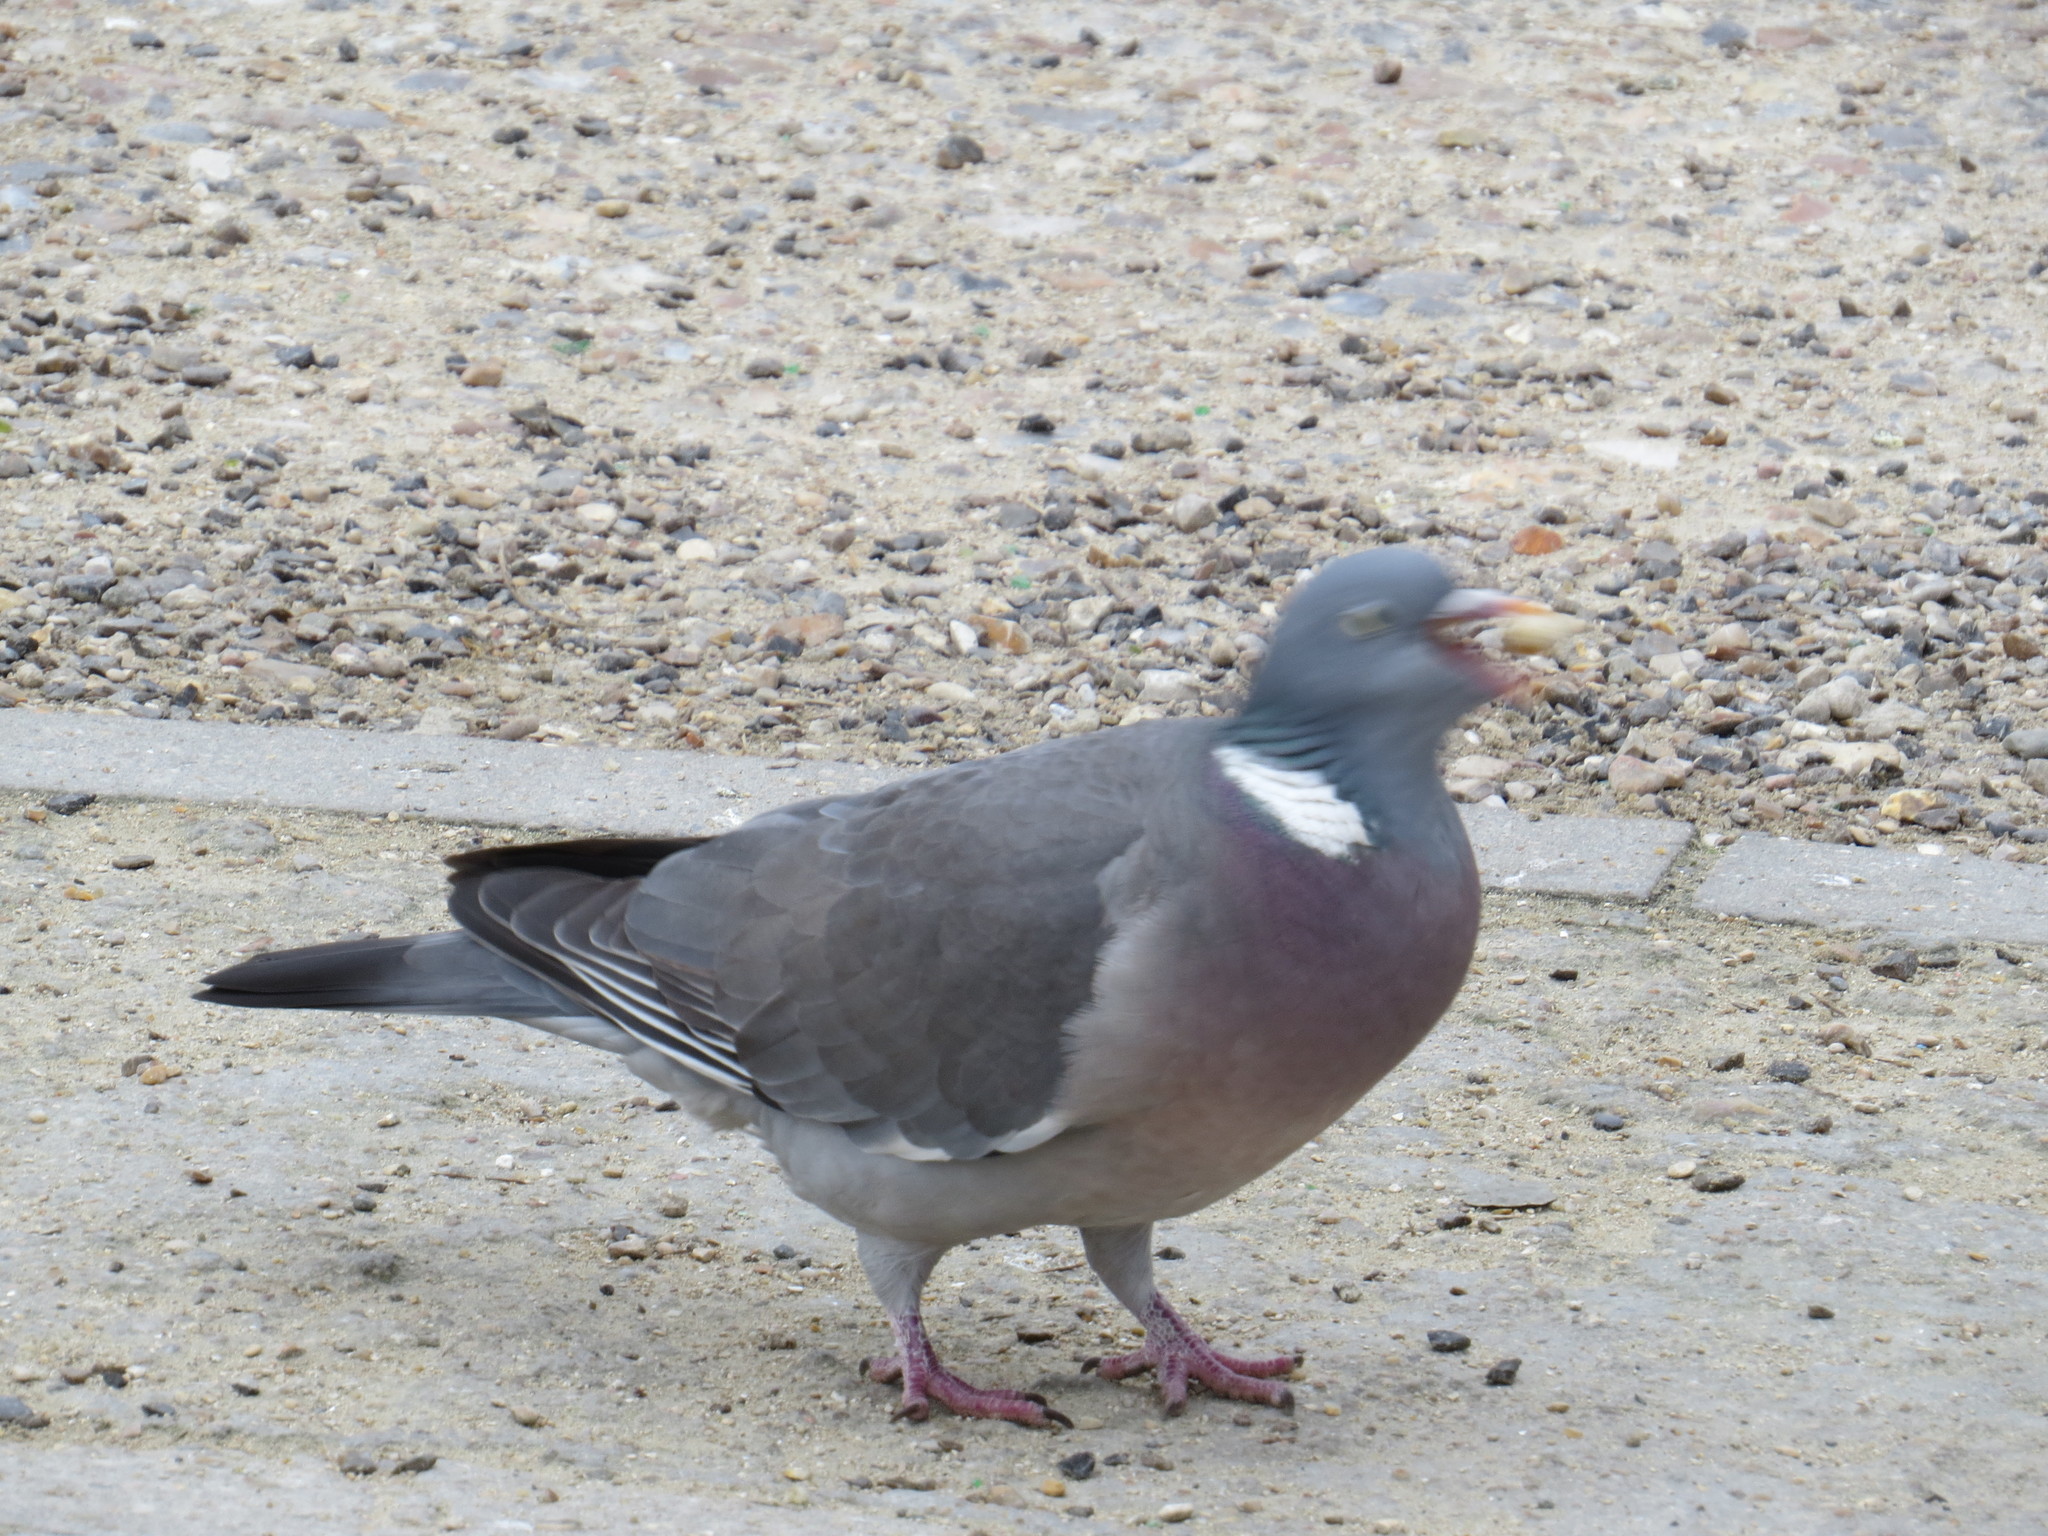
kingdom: Animalia
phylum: Chordata
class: Aves
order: Columbiformes
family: Columbidae
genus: Columba
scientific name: Columba palumbus
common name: Common wood pigeon
